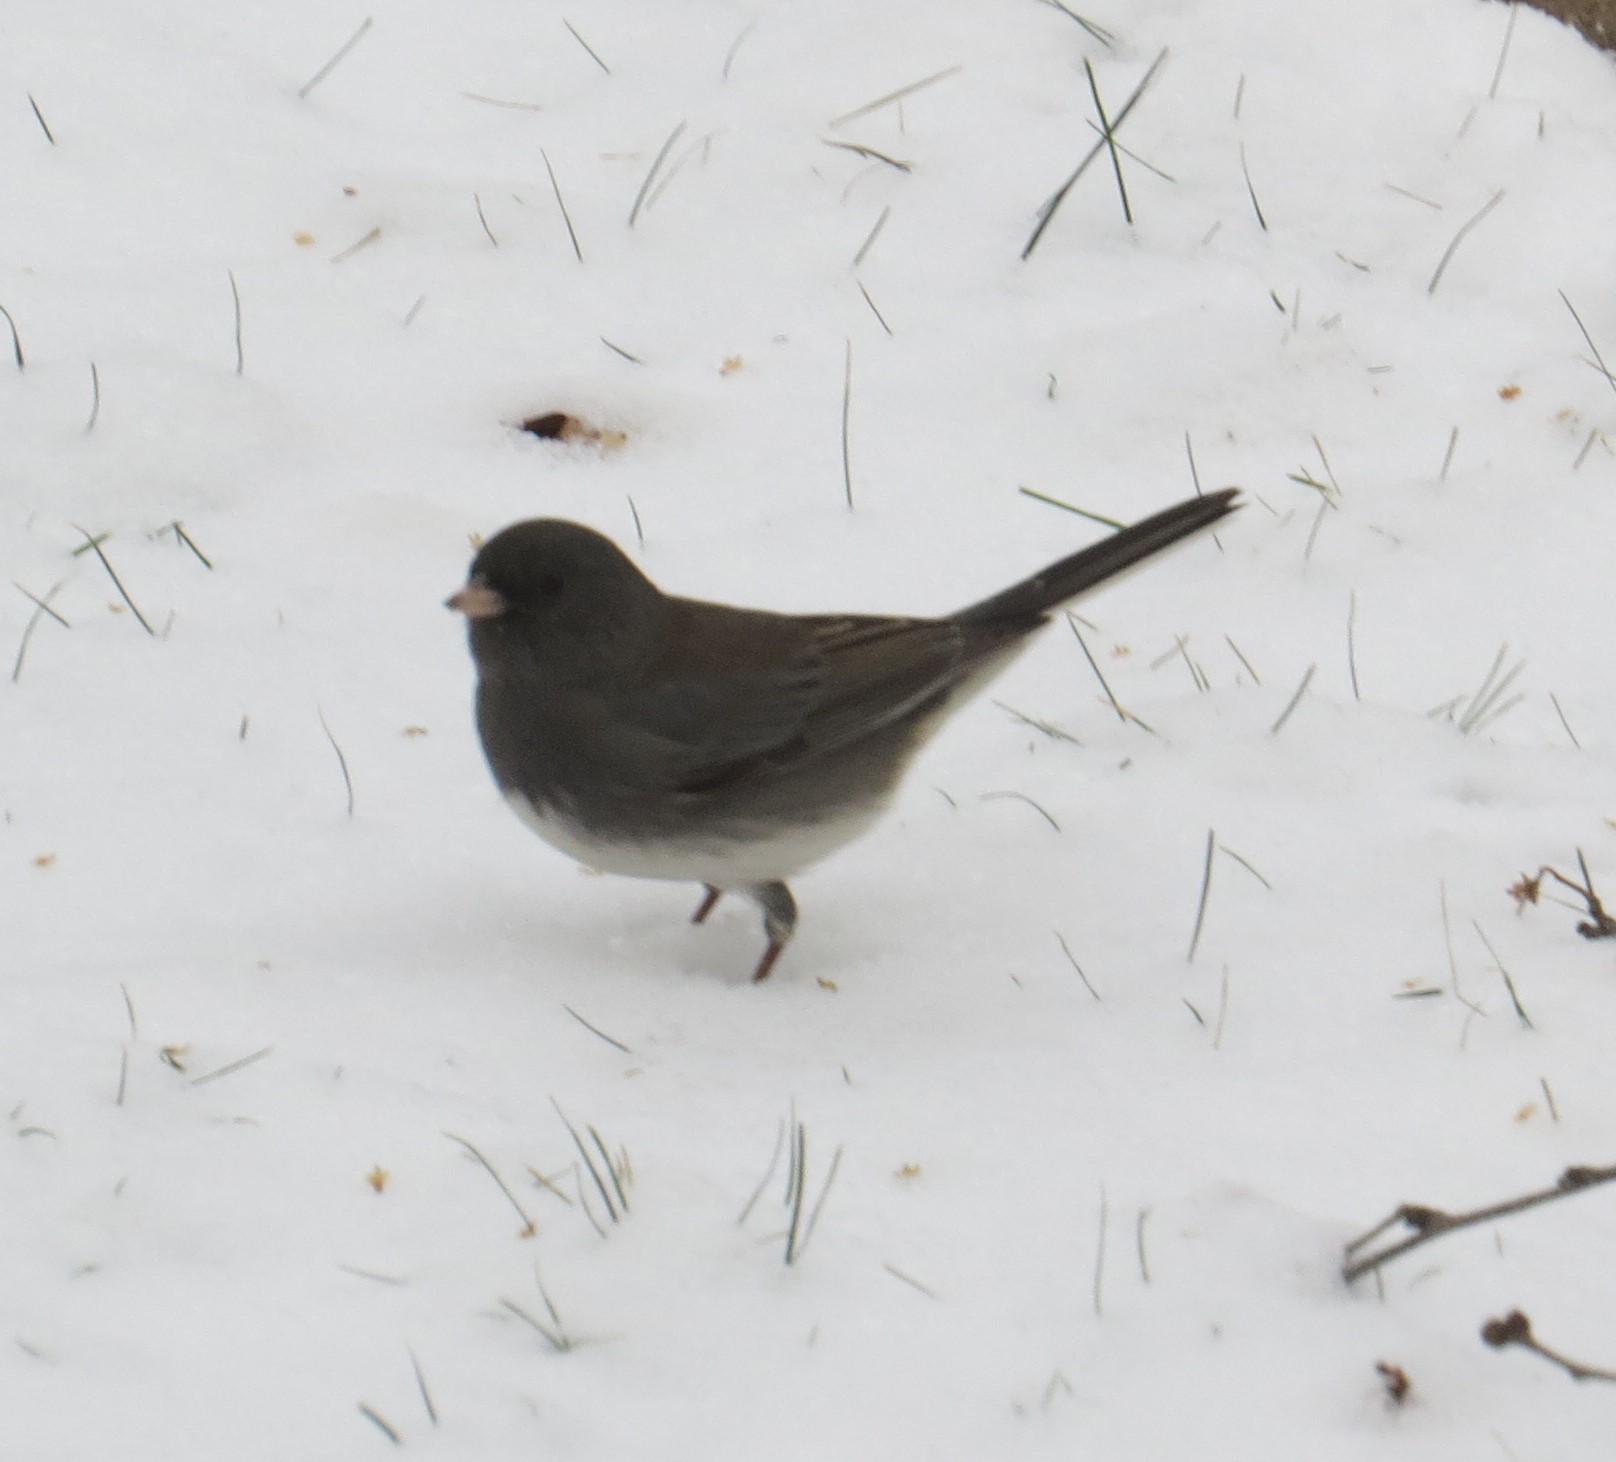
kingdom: Animalia
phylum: Chordata
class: Aves
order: Passeriformes
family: Passerellidae
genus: Junco
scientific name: Junco hyemalis
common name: Dark-eyed junco
